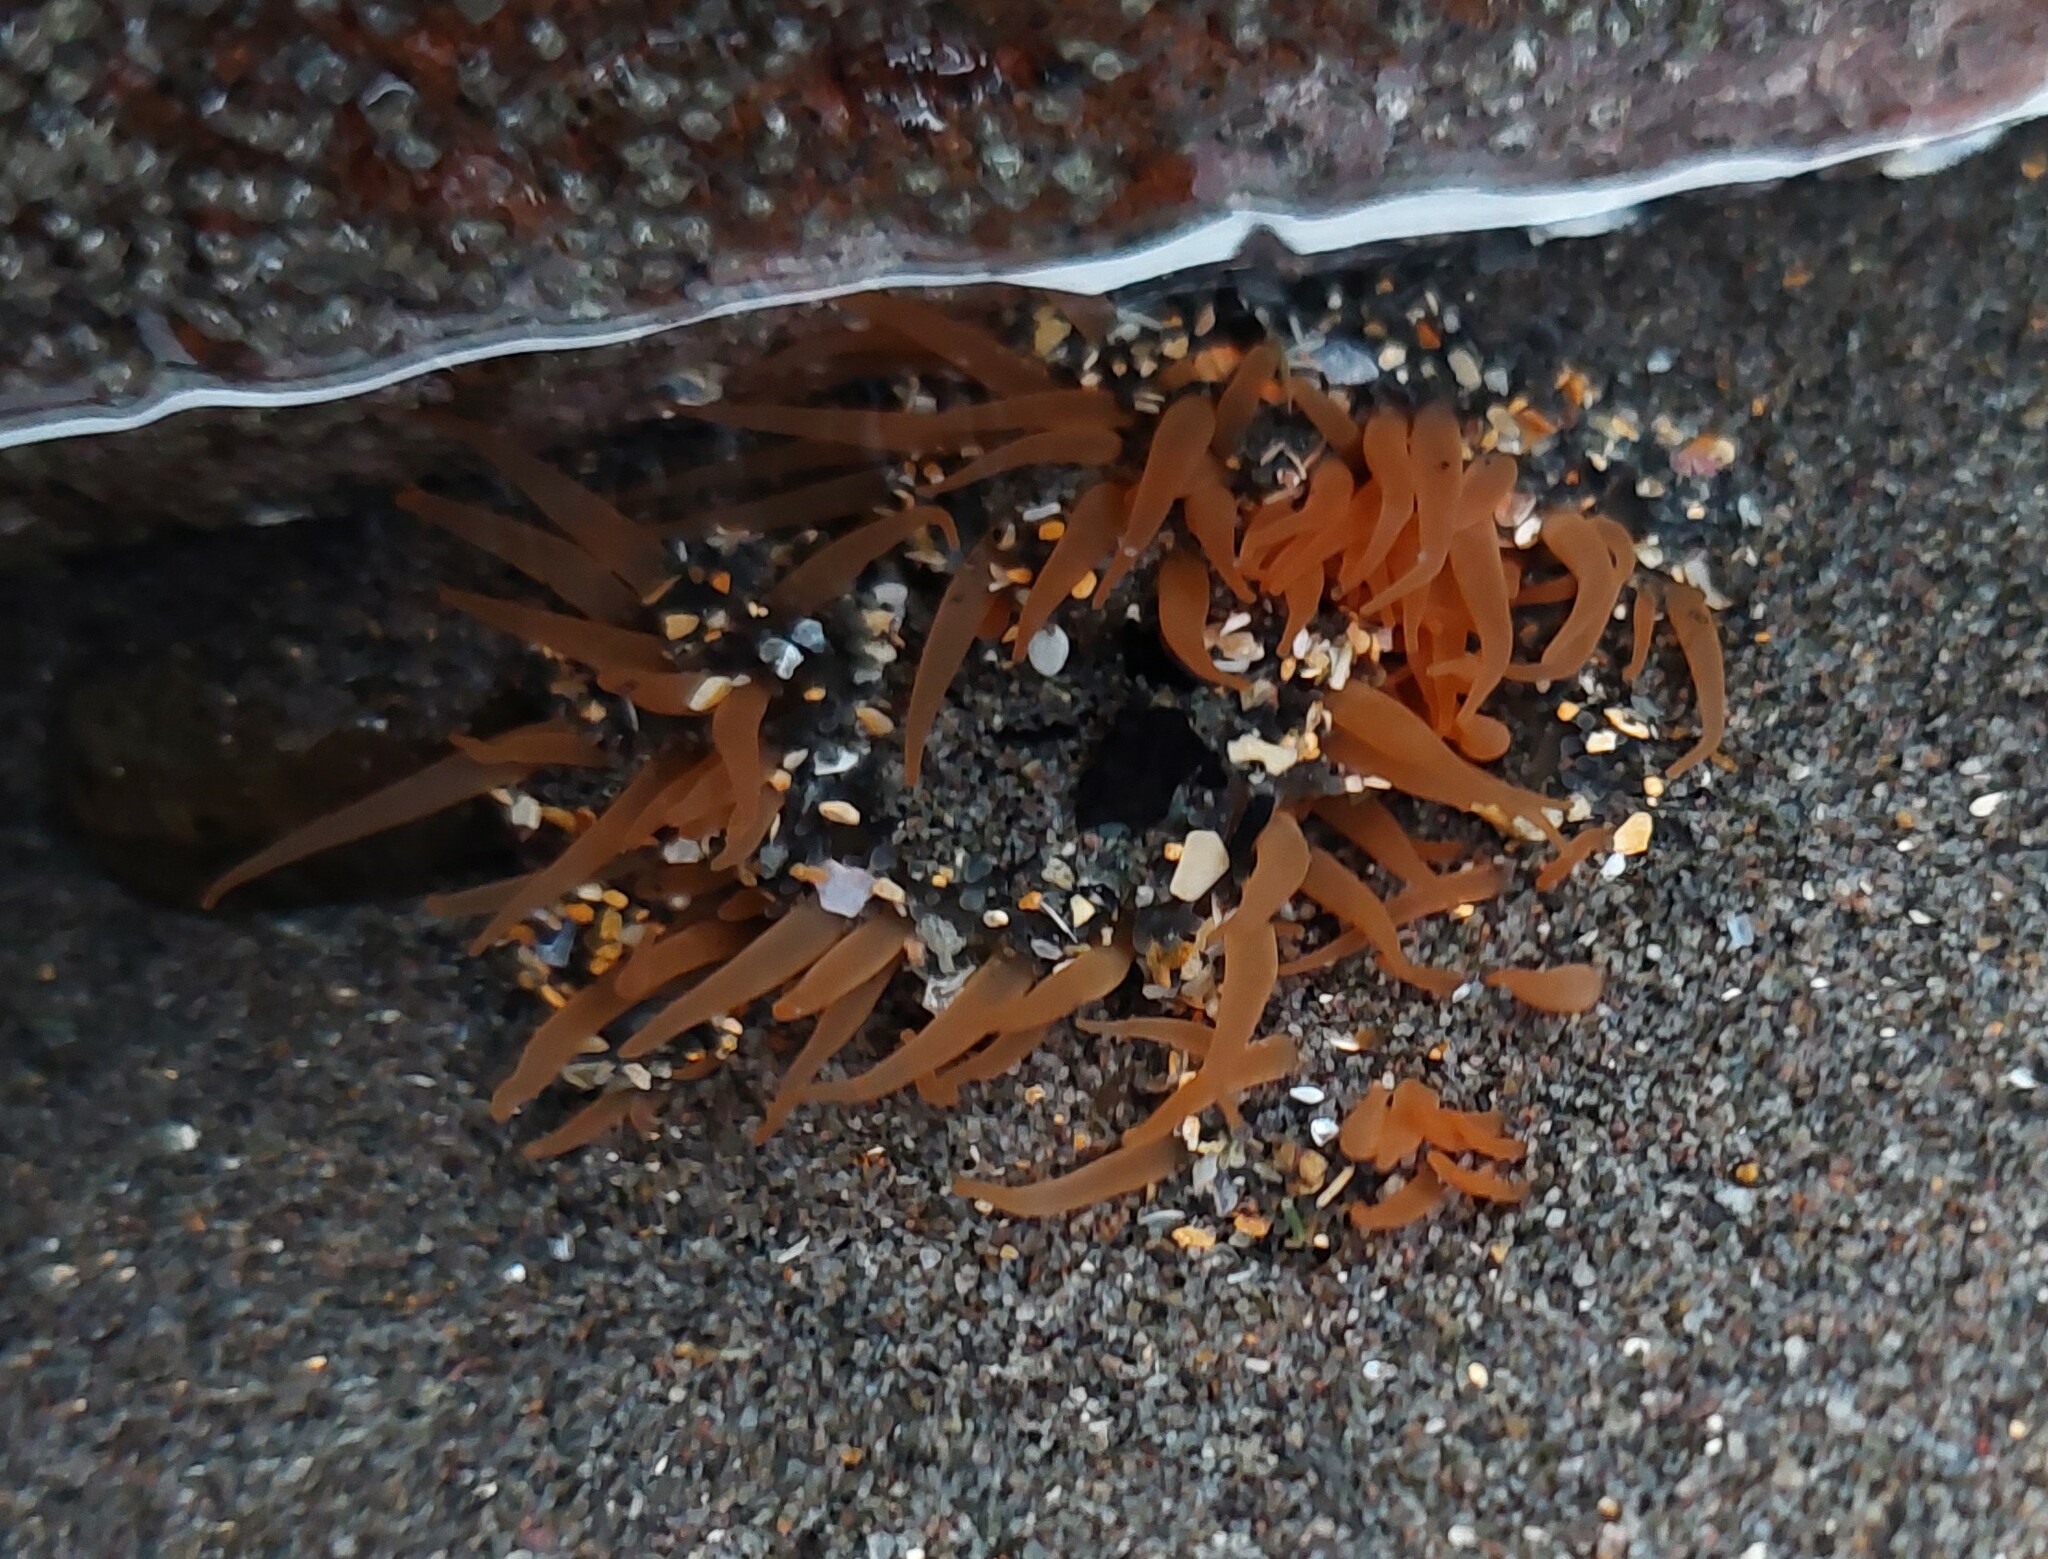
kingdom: Animalia
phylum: Cnidaria
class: Anthozoa
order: Actiniaria
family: Actiniidae
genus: Oulactis
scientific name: Oulactis magna
